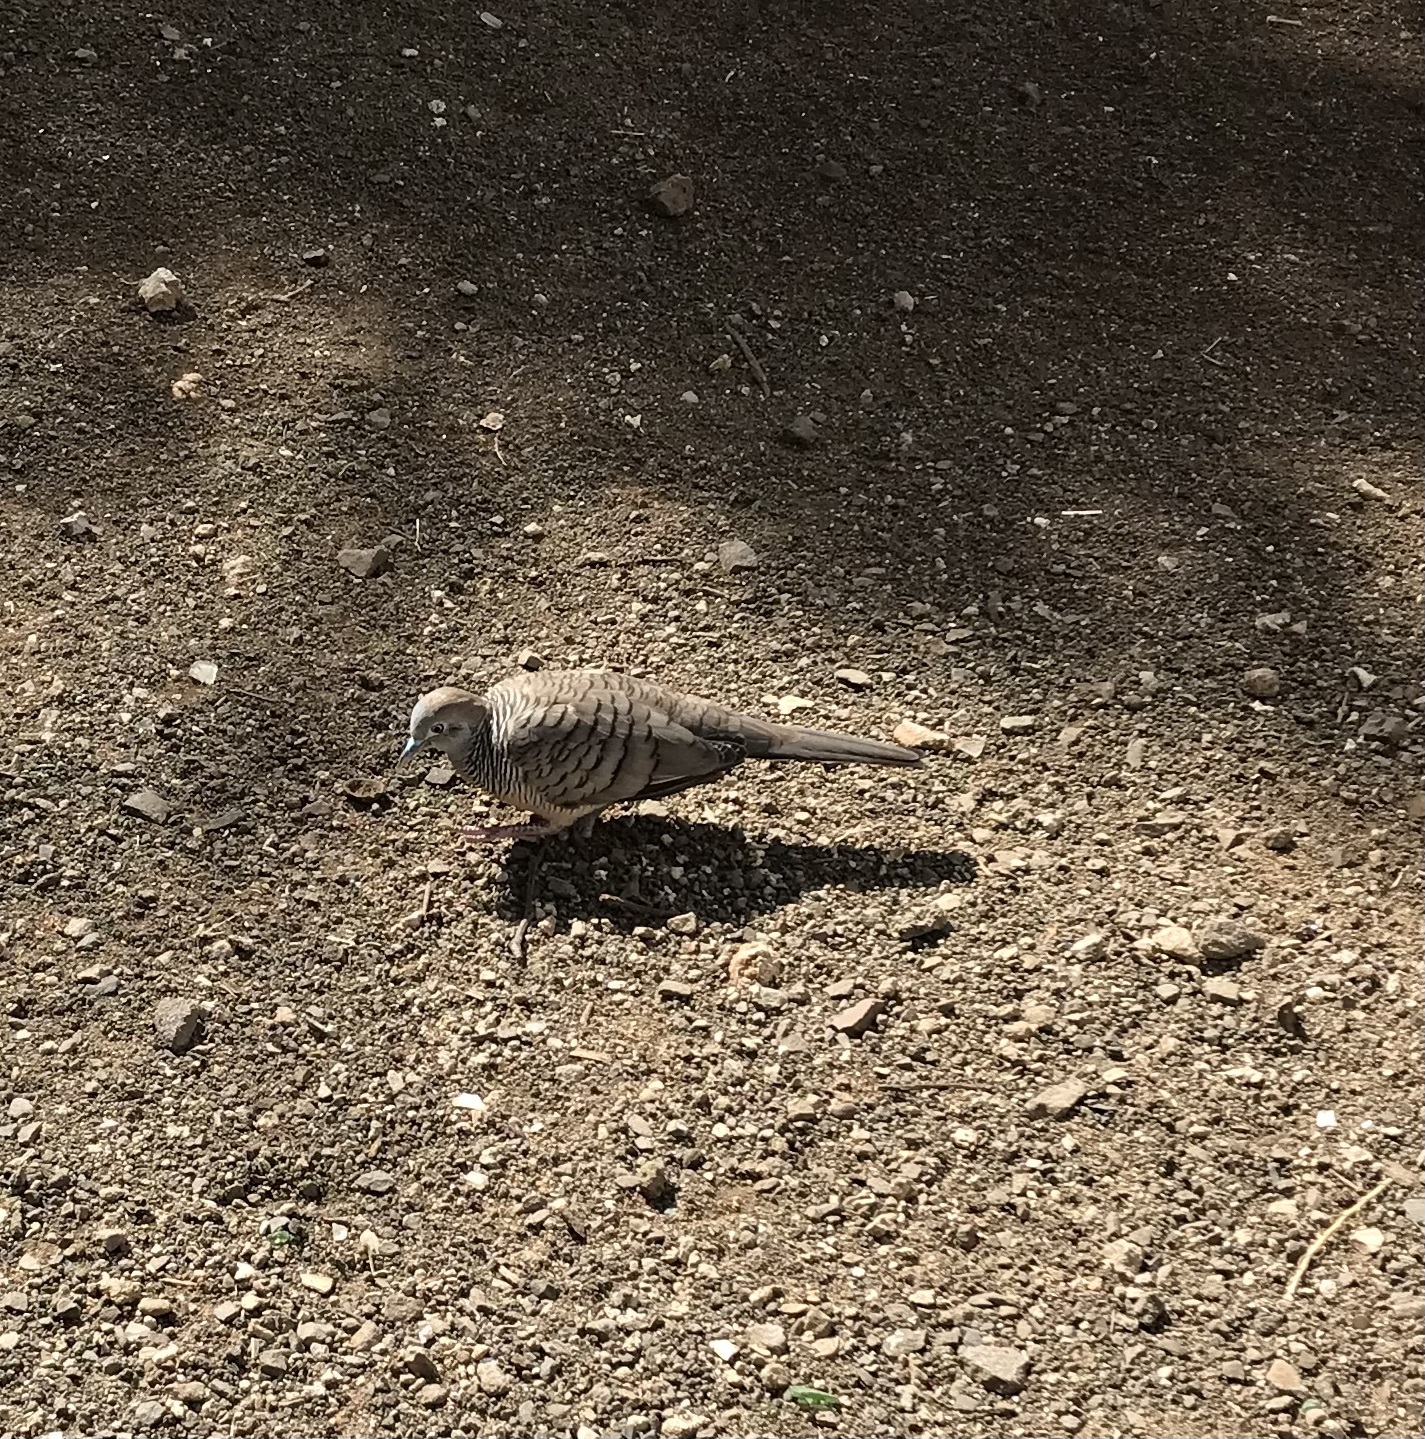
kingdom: Animalia
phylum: Chordata
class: Aves
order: Columbiformes
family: Columbidae
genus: Geopelia
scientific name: Geopelia striata
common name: Zebra dove
